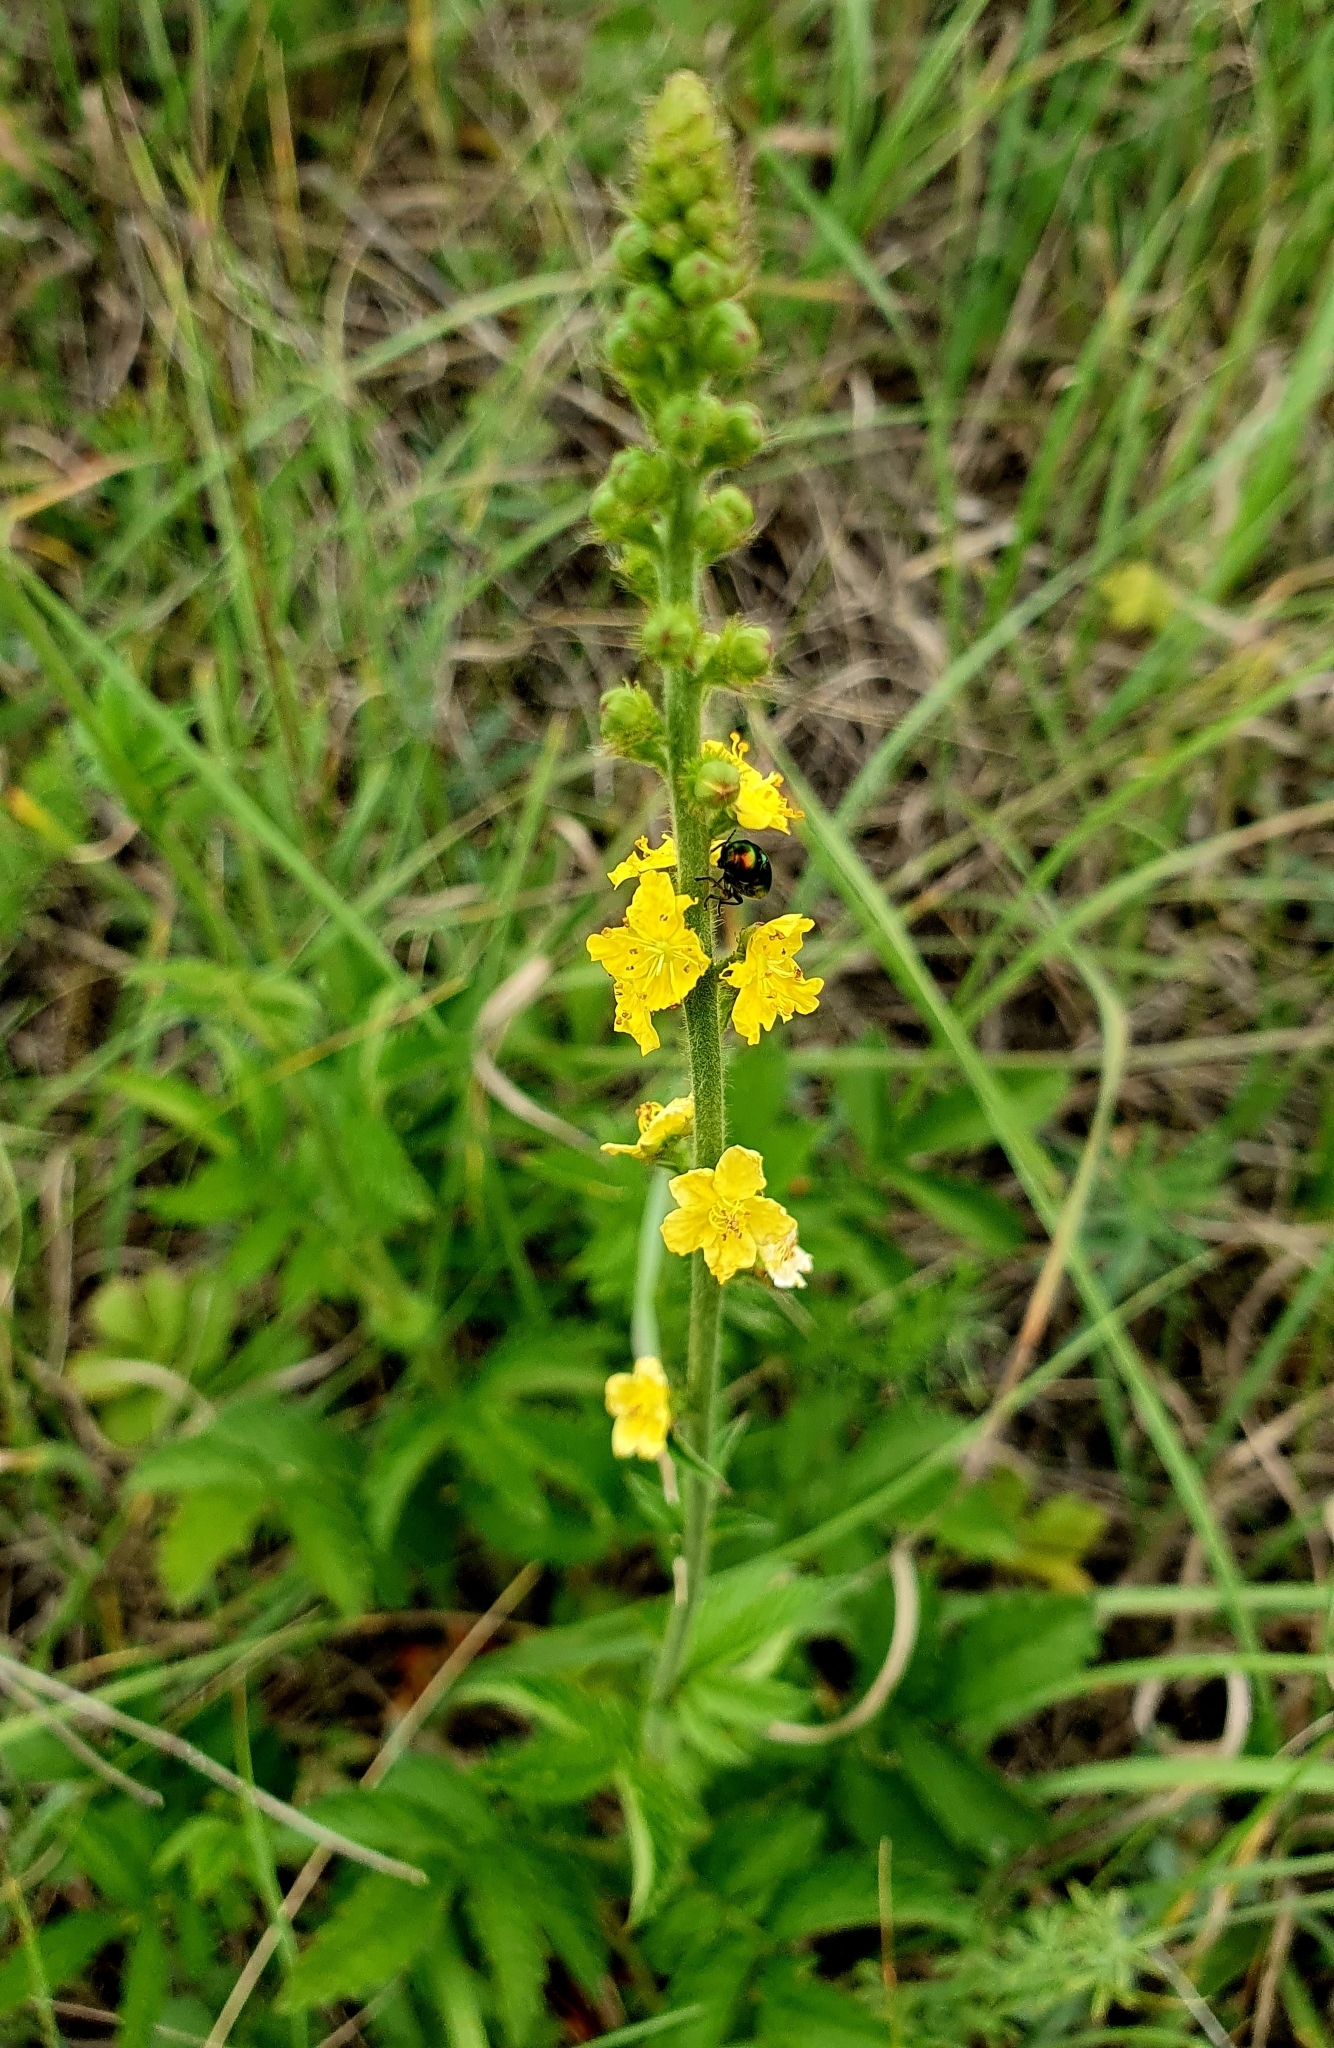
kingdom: Plantae
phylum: Tracheophyta
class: Magnoliopsida
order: Rosales
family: Rosaceae
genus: Agrimonia
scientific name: Agrimonia eupatoria
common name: Agrimony
